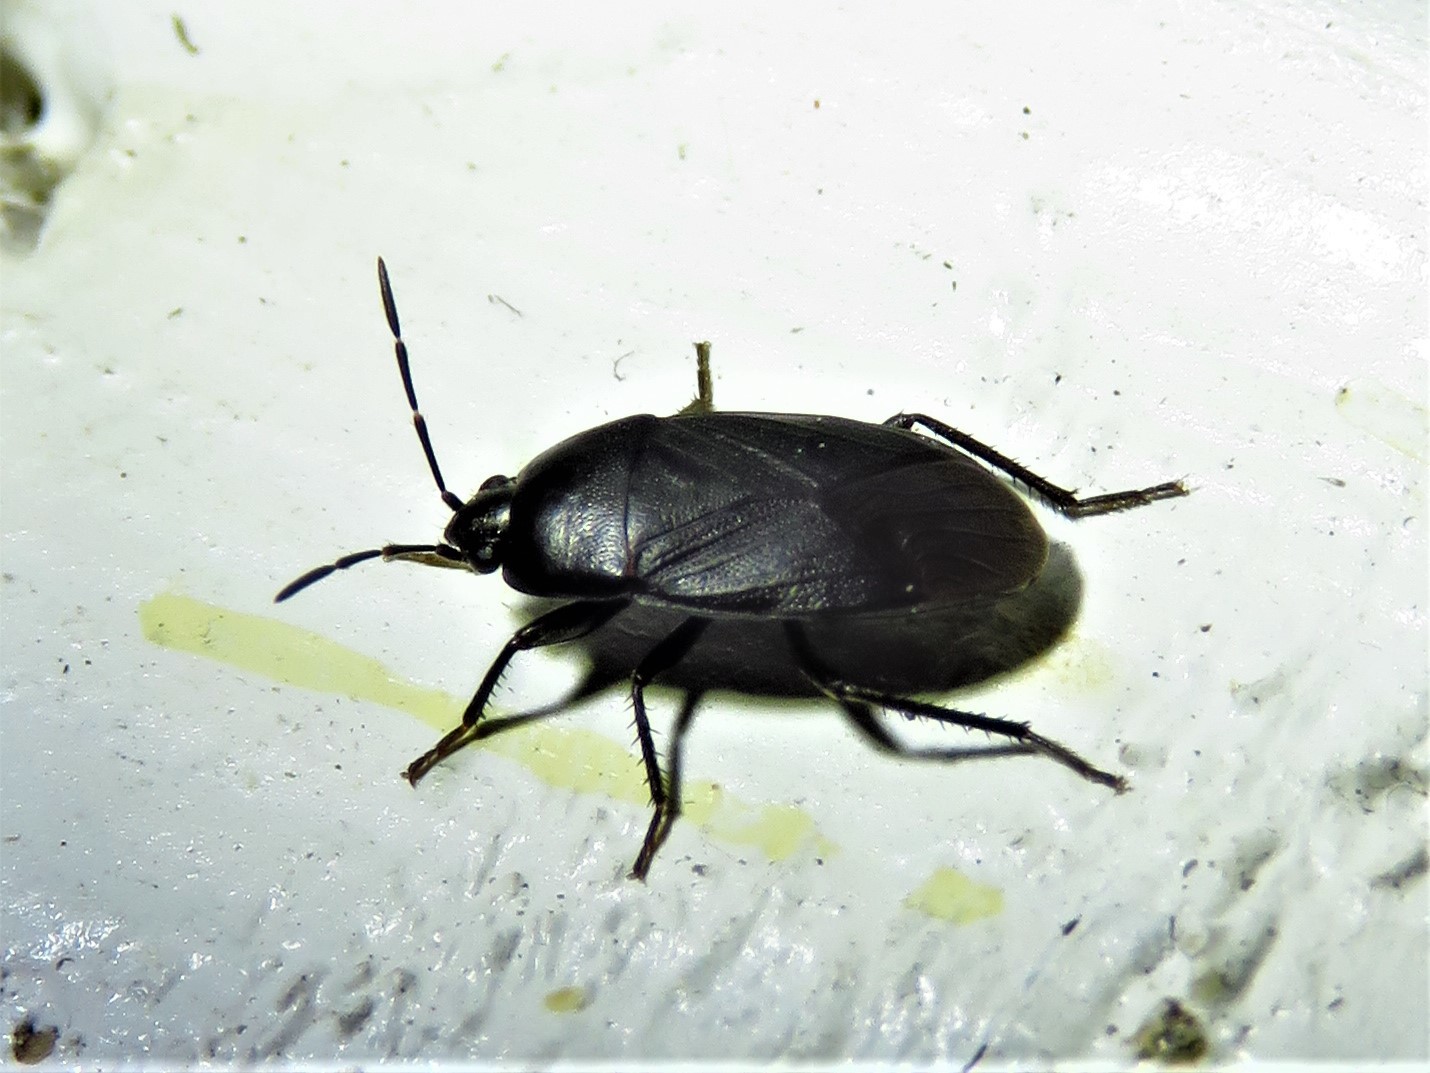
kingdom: Animalia
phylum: Arthropoda
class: Insecta
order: Hemiptera
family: Rhyparochromidae
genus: Atrazonotus
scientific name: Atrazonotus umbrosus
